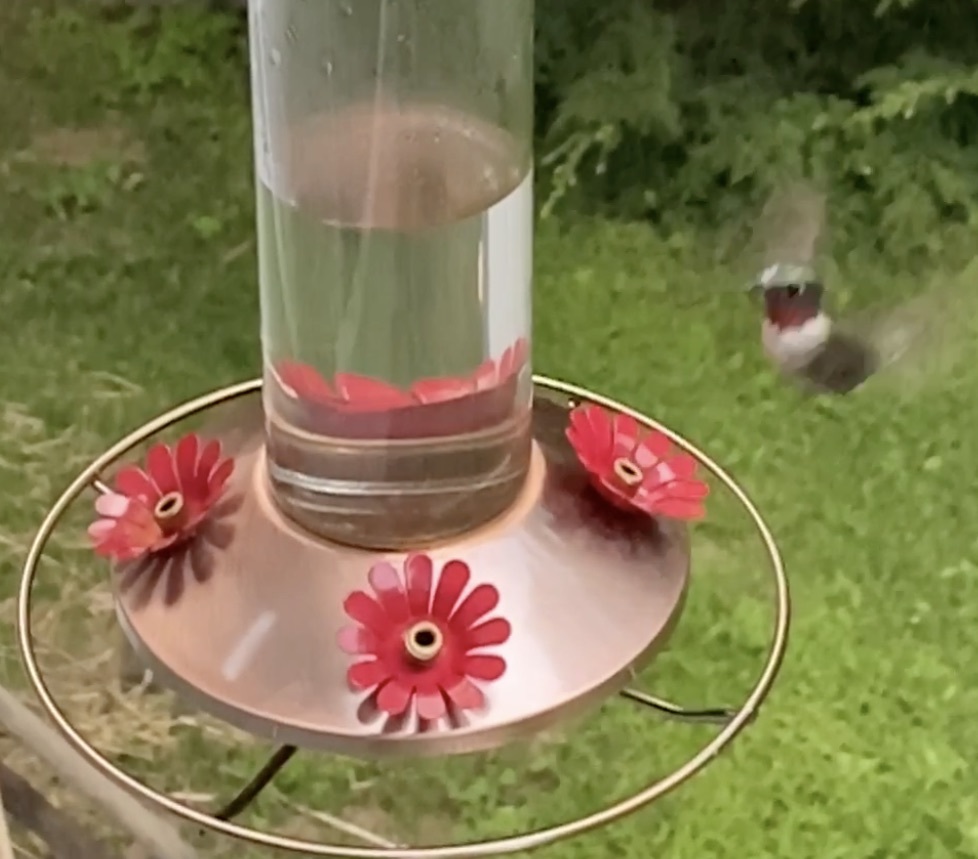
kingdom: Animalia
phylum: Chordata
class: Aves
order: Apodiformes
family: Trochilidae
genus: Archilochus
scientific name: Archilochus colubris
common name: Ruby-throated hummingbird
